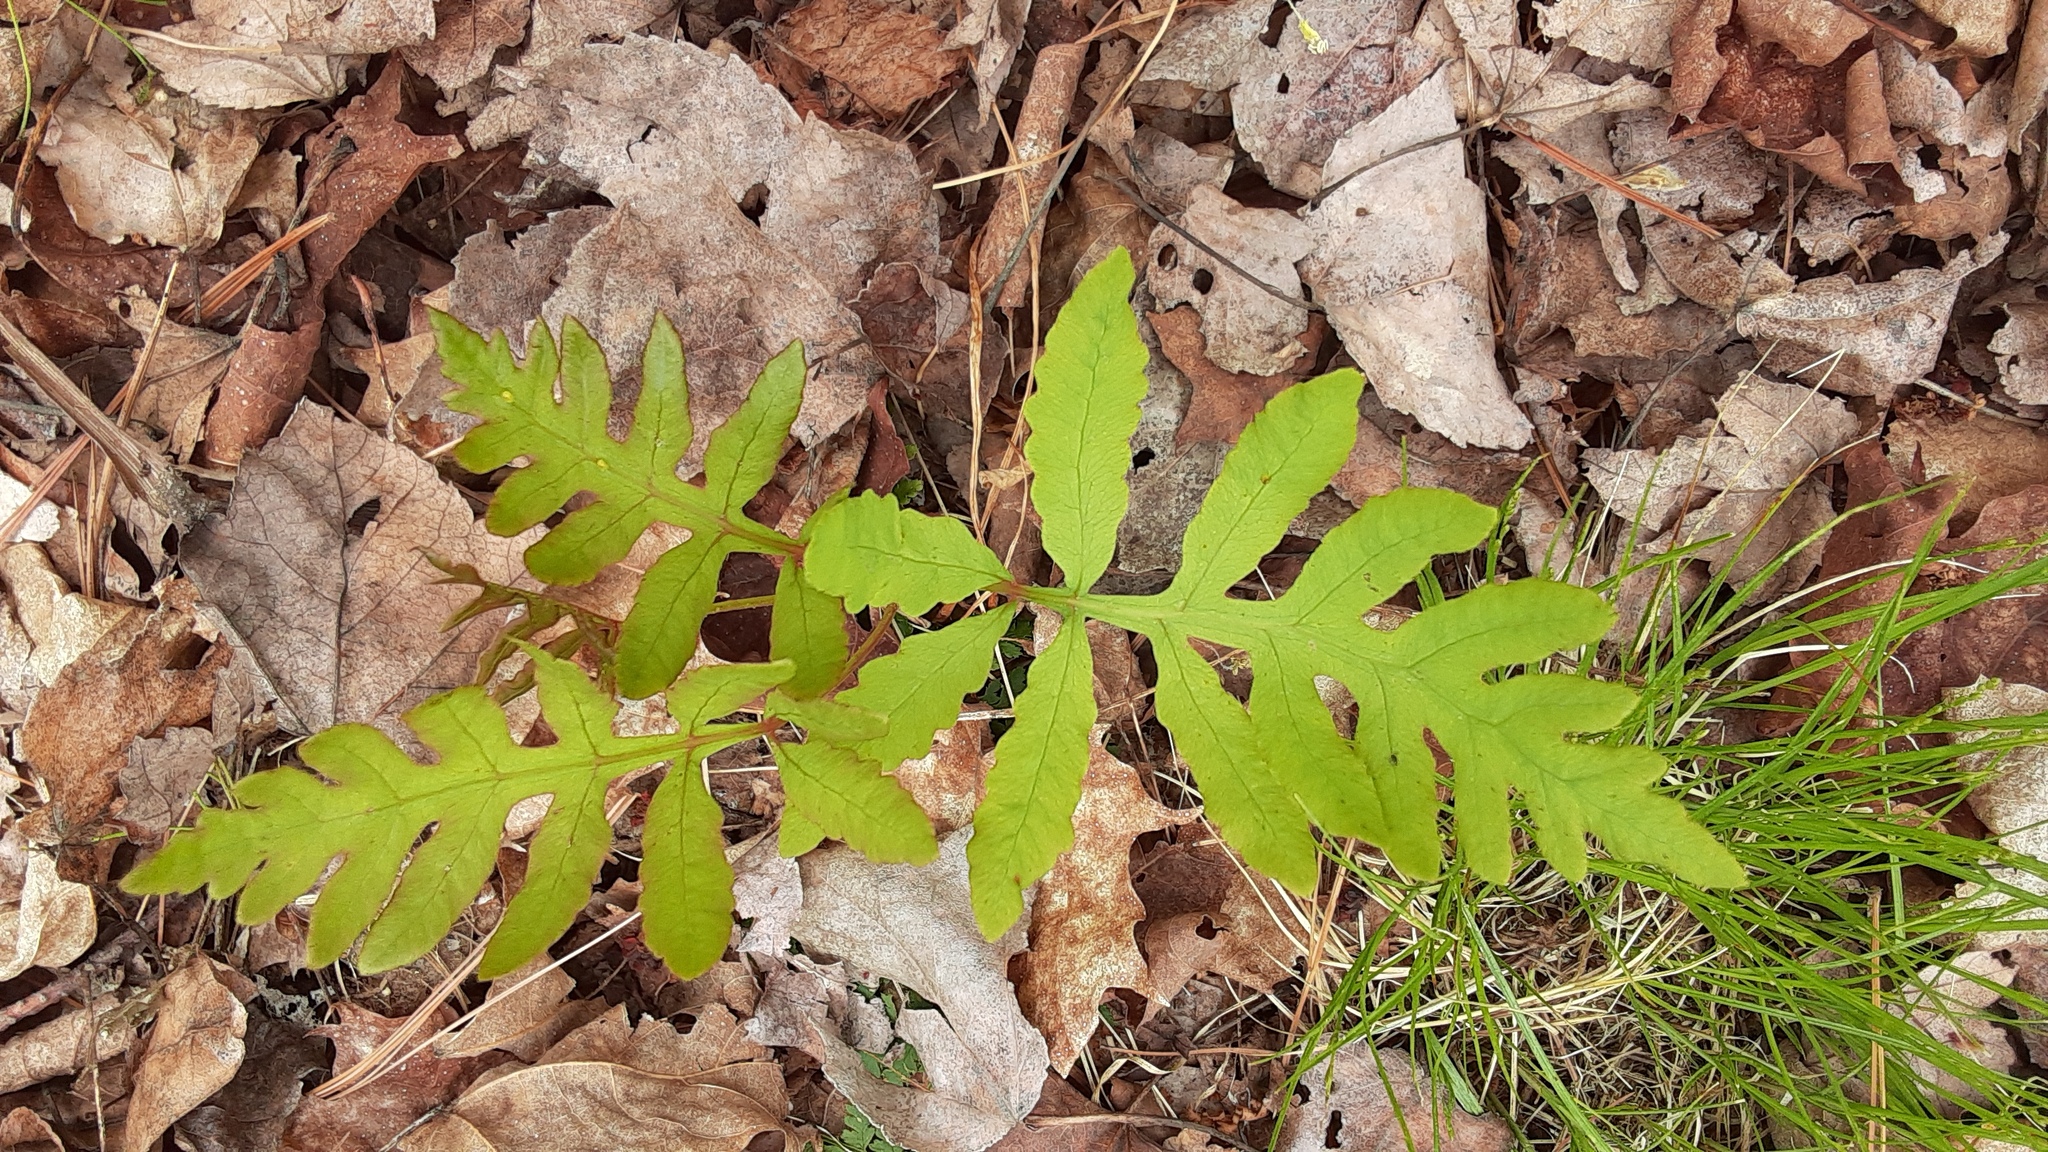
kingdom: Plantae
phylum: Tracheophyta
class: Polypodiopsida
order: Polypodiales
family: Onocleaceae
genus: Onoclea
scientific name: Onoclea sensibilis
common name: Sensitive fern
